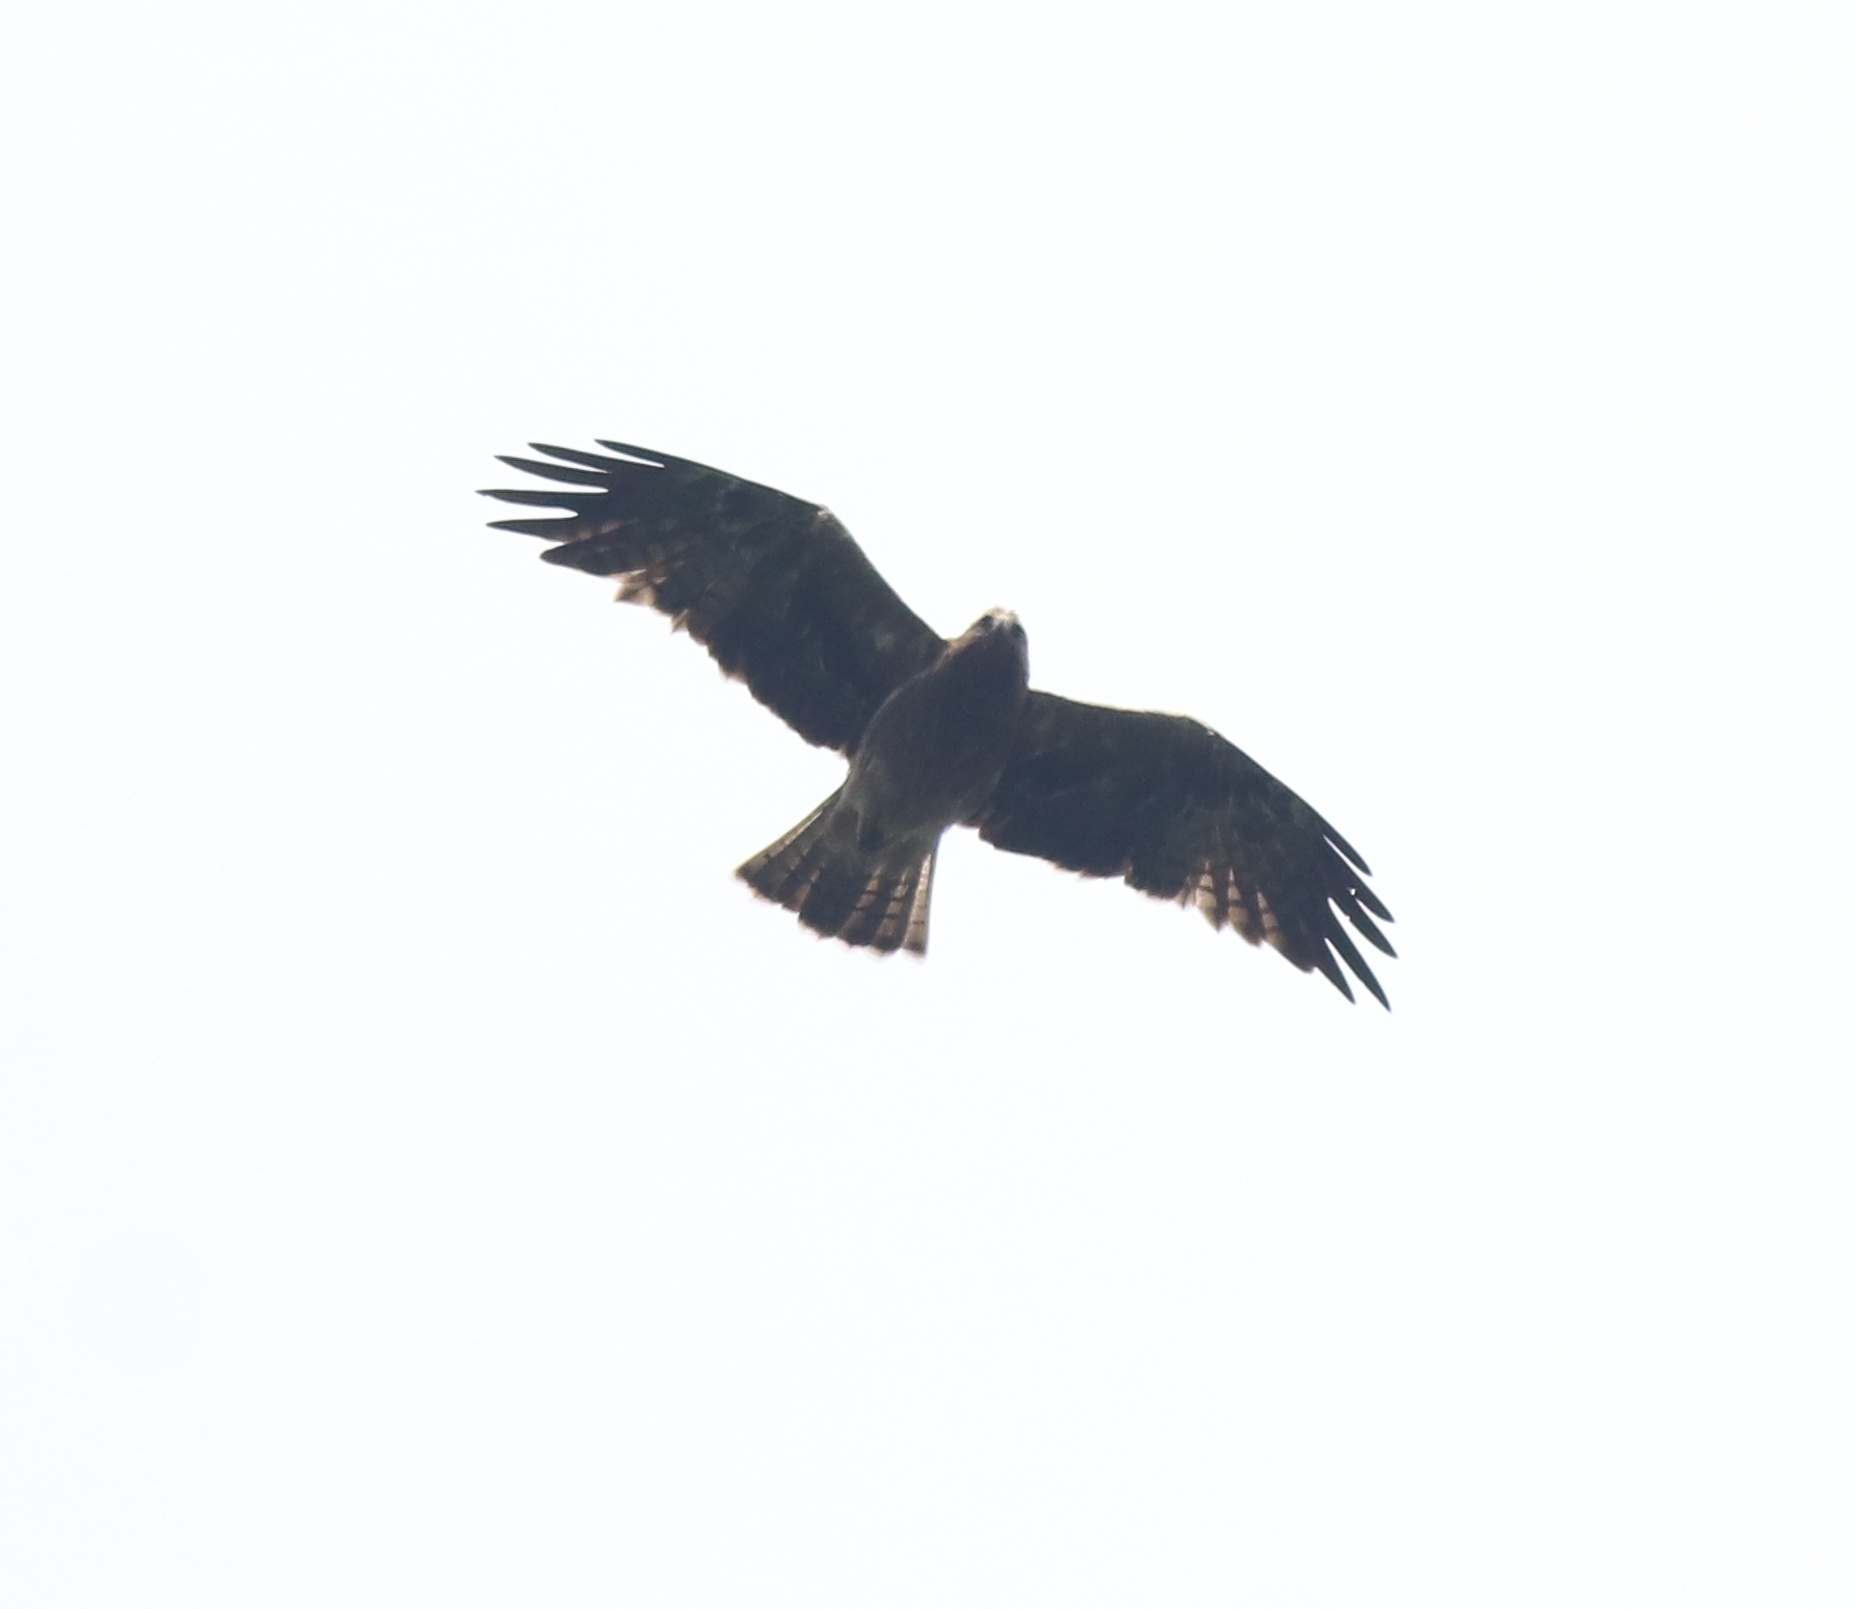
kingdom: Animalia
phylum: Chordata
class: Aves
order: Accipitriformes
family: Accipitridae
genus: Hieraaetus
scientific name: Hieraaetus pennatus
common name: Booted eagle
